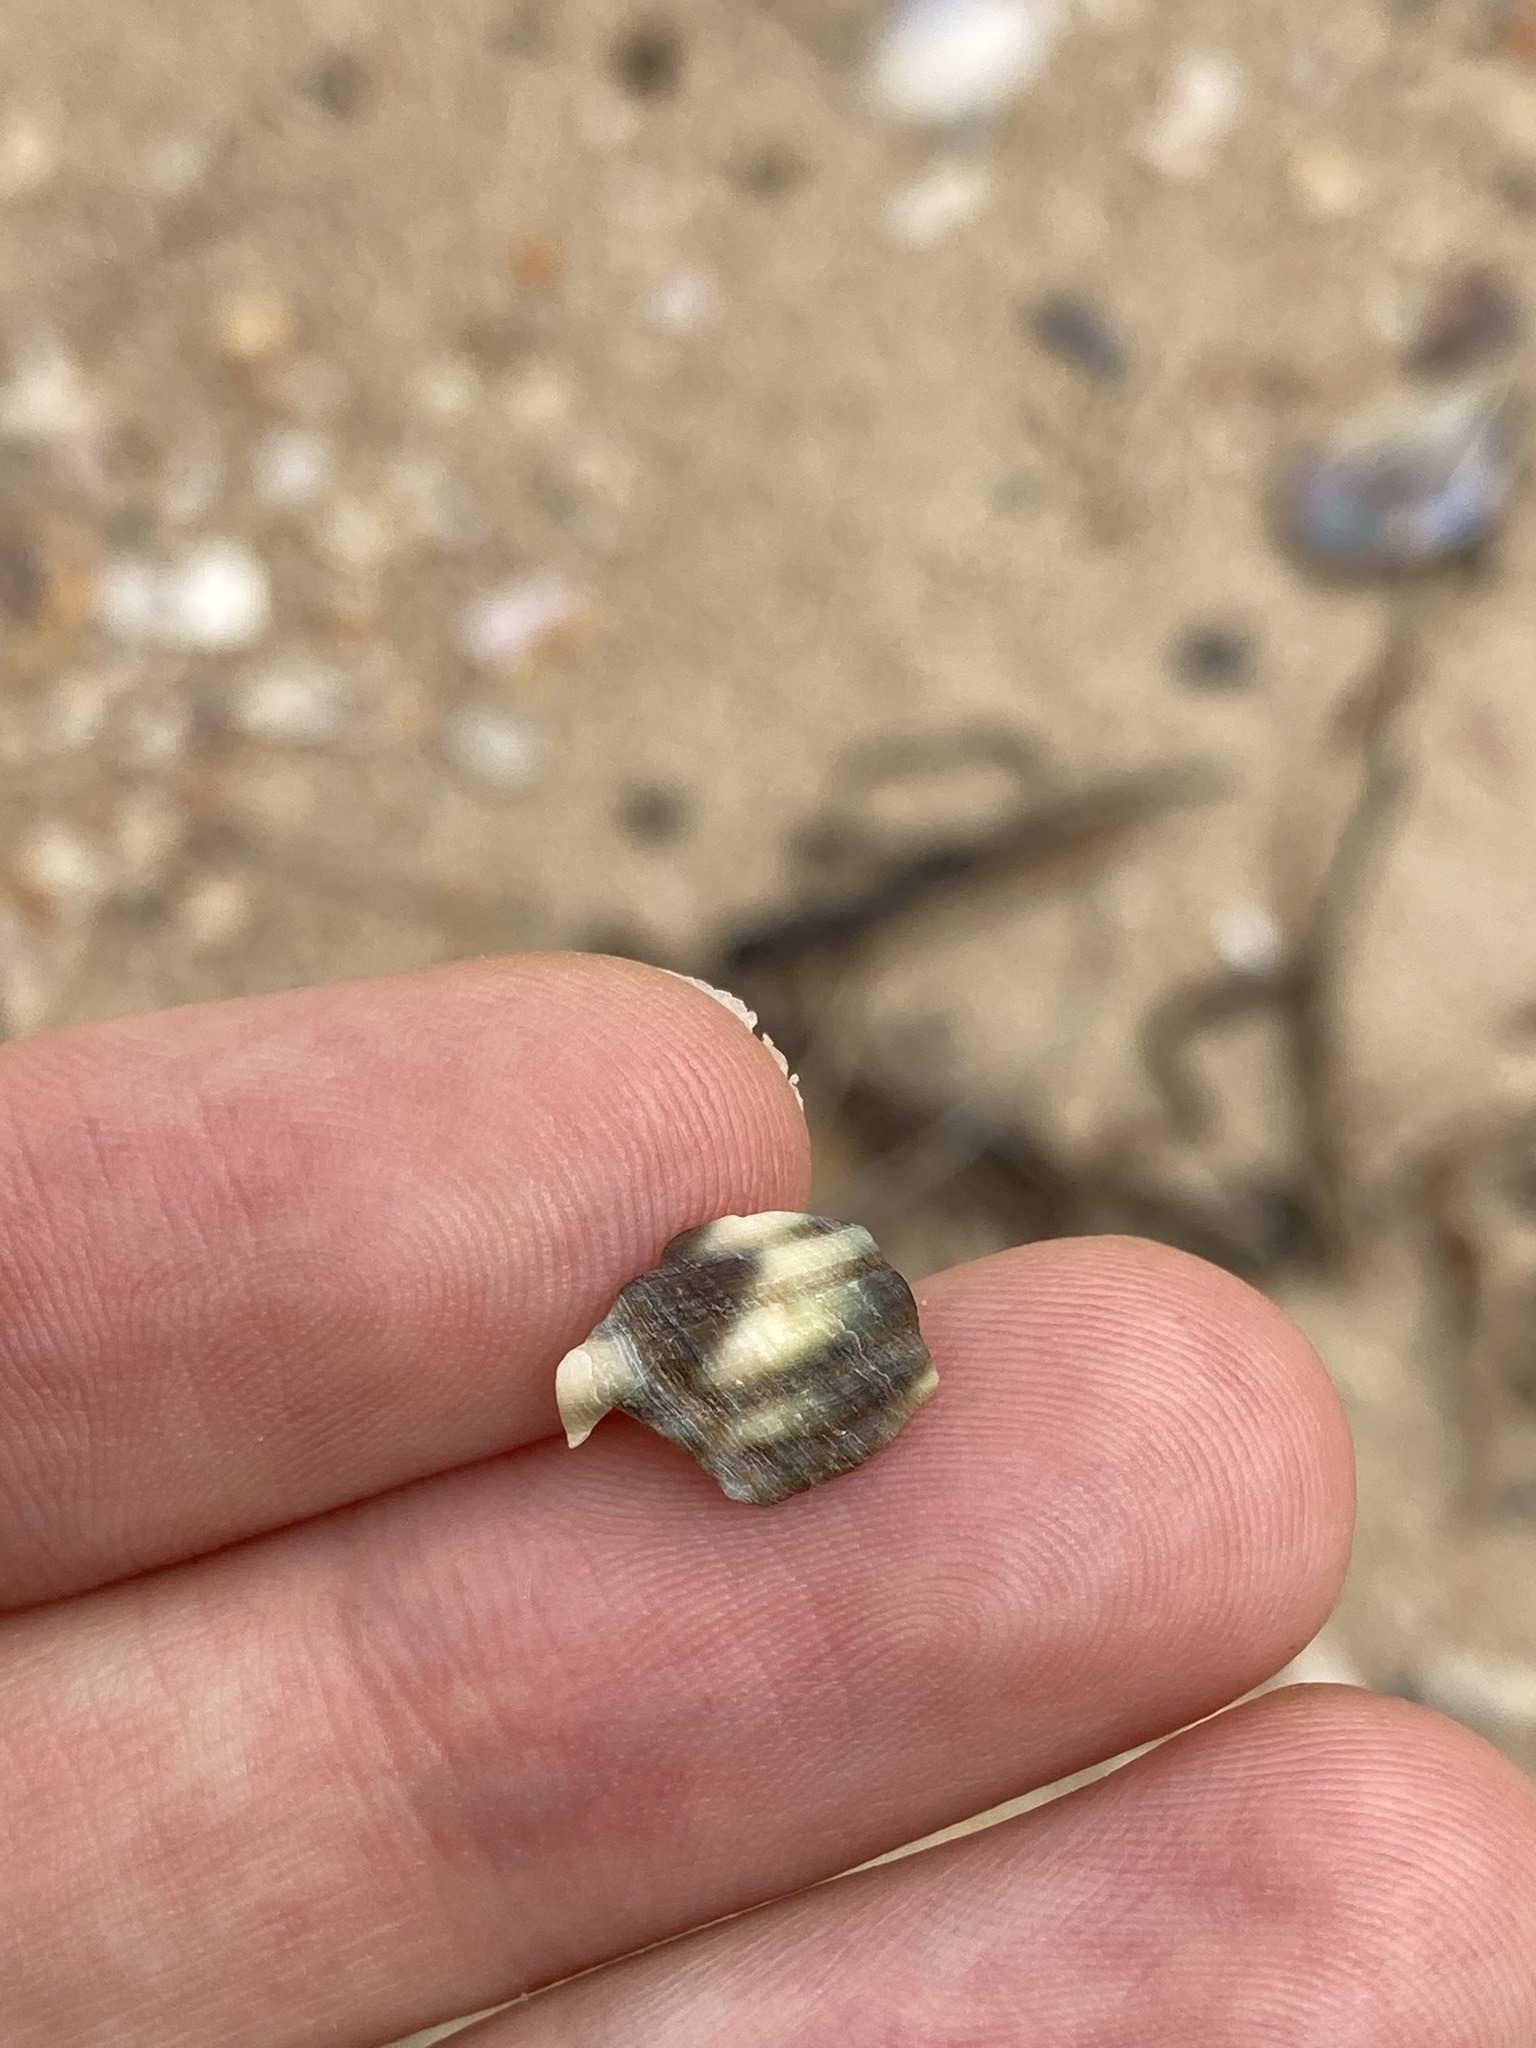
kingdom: Animalia
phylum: Mollusca
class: Gastropoda
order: Trochida
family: Turbinidae
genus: Lunella
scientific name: Lunella undulata
